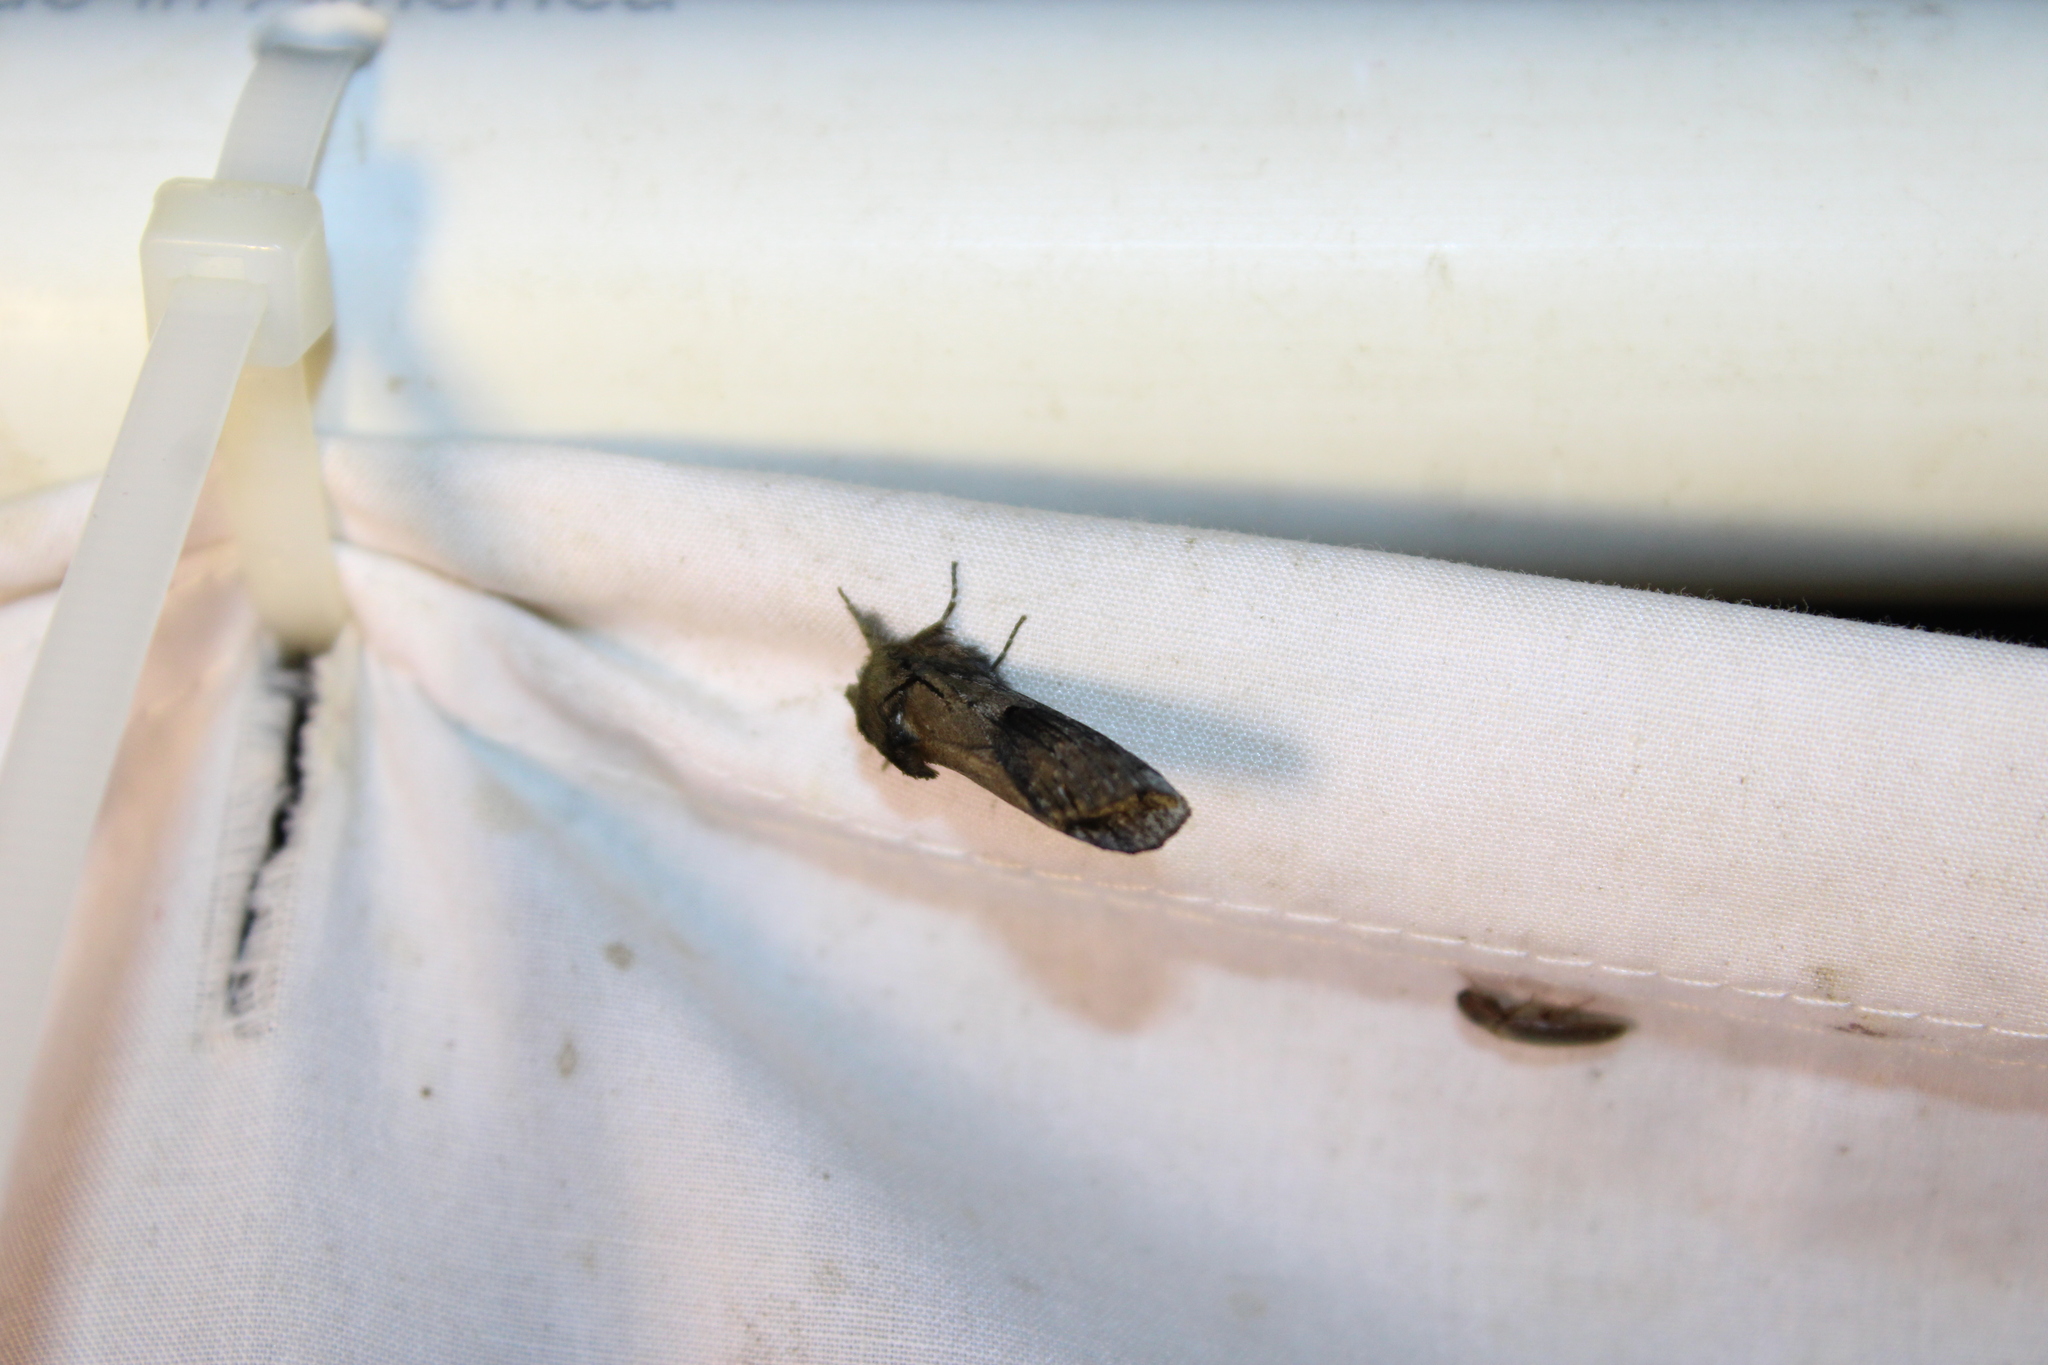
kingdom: Animalia
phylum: Arthropoda
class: Insecta
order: Lepidoptera
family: Notodontidae
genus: Schizura
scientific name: Schizura
